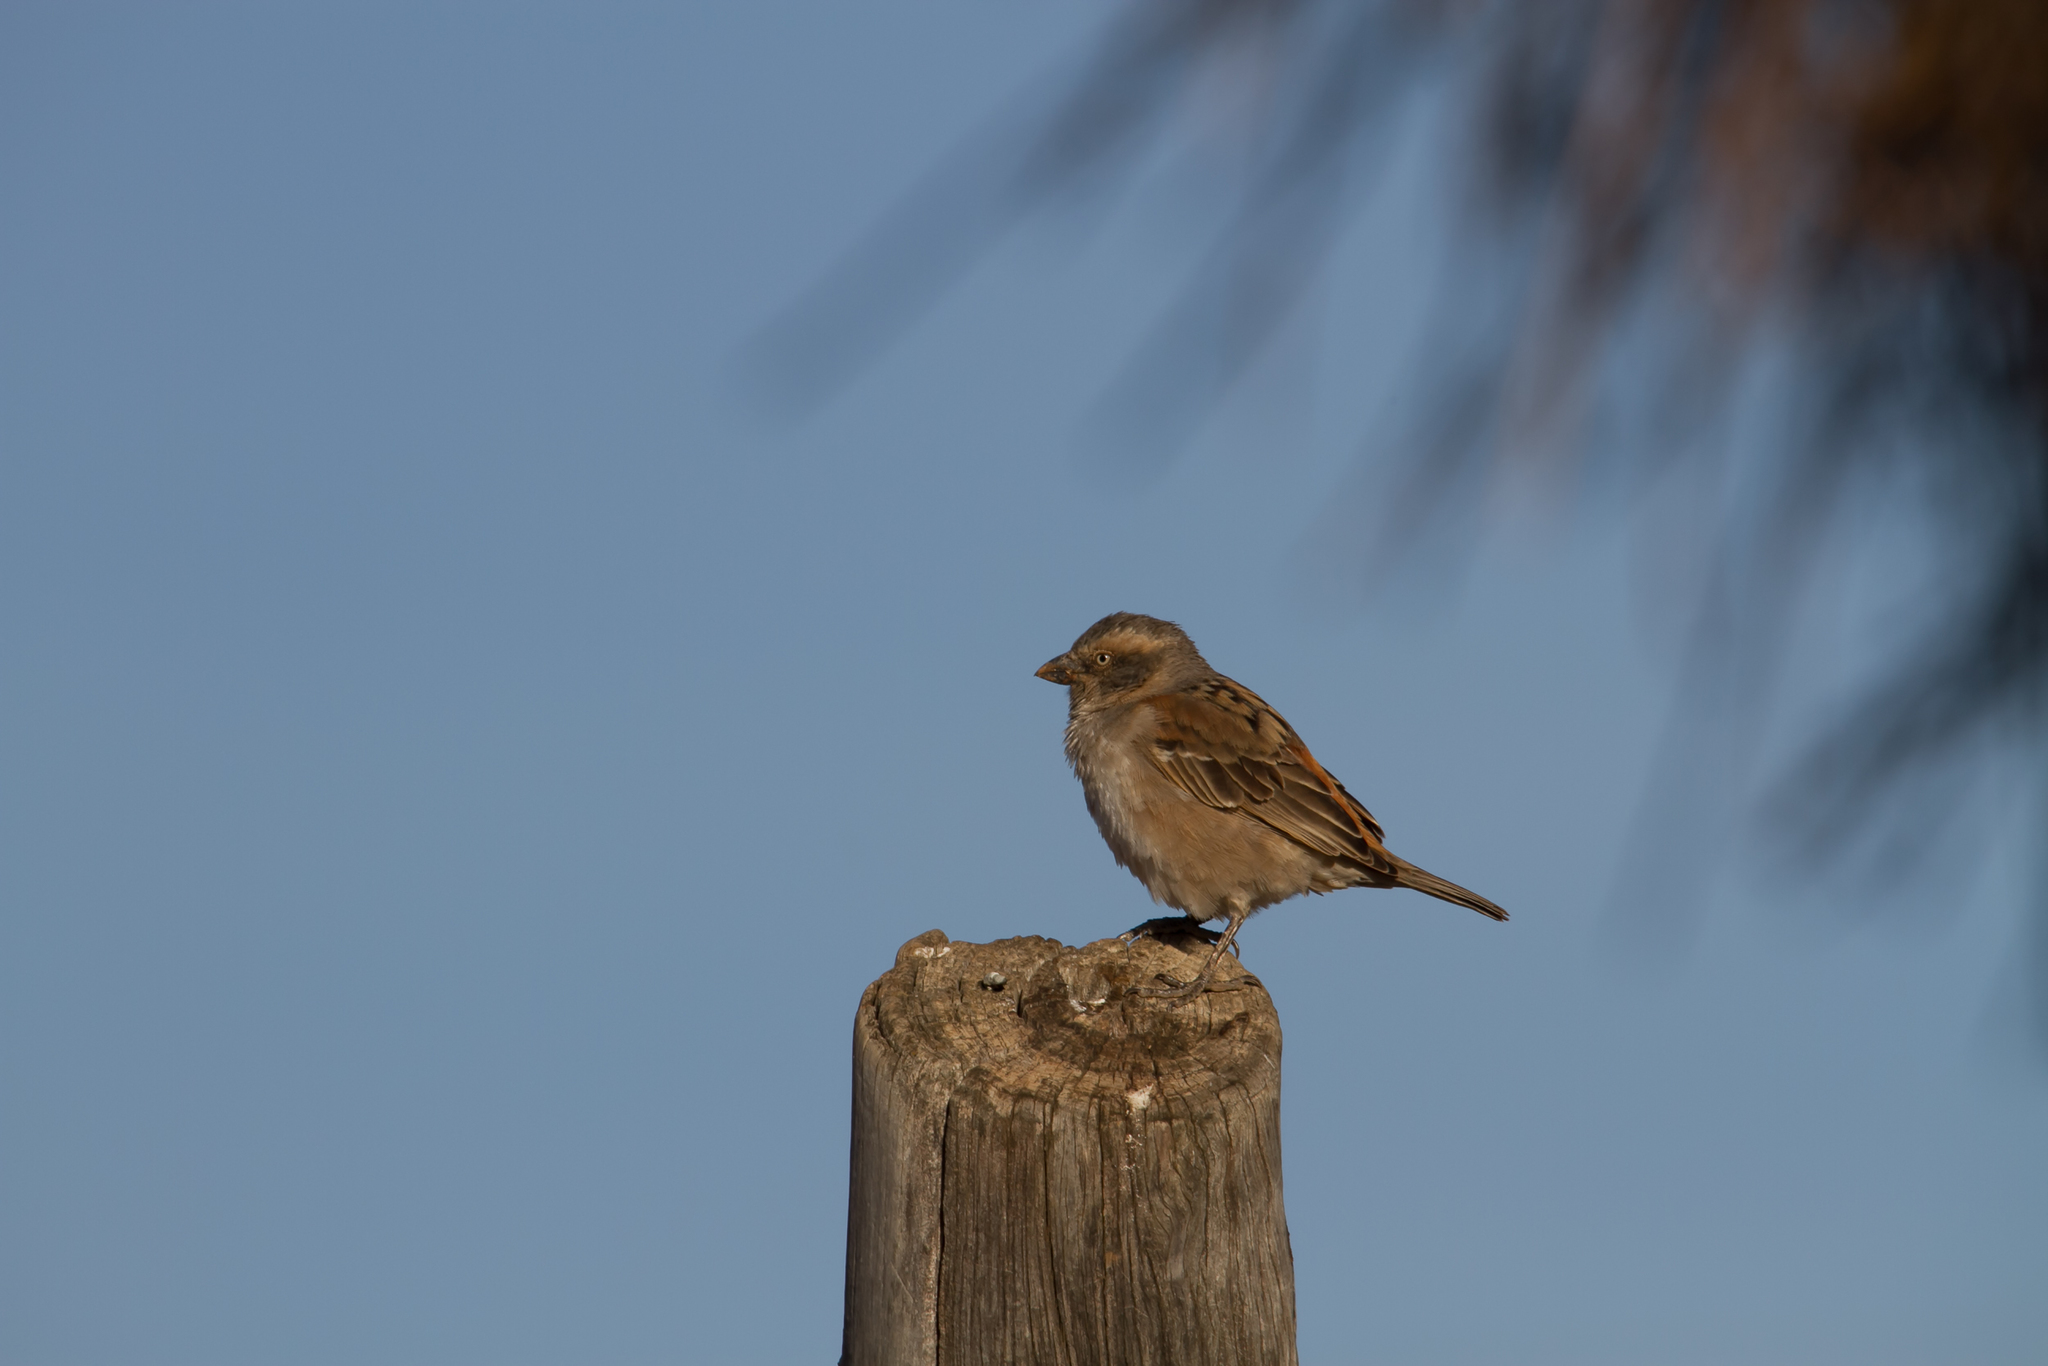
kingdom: Animalia
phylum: Chordata
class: Aves
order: Passeriformes
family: Passeridae
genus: Passer
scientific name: Passer rufocinctus
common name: Kenya sparrow
